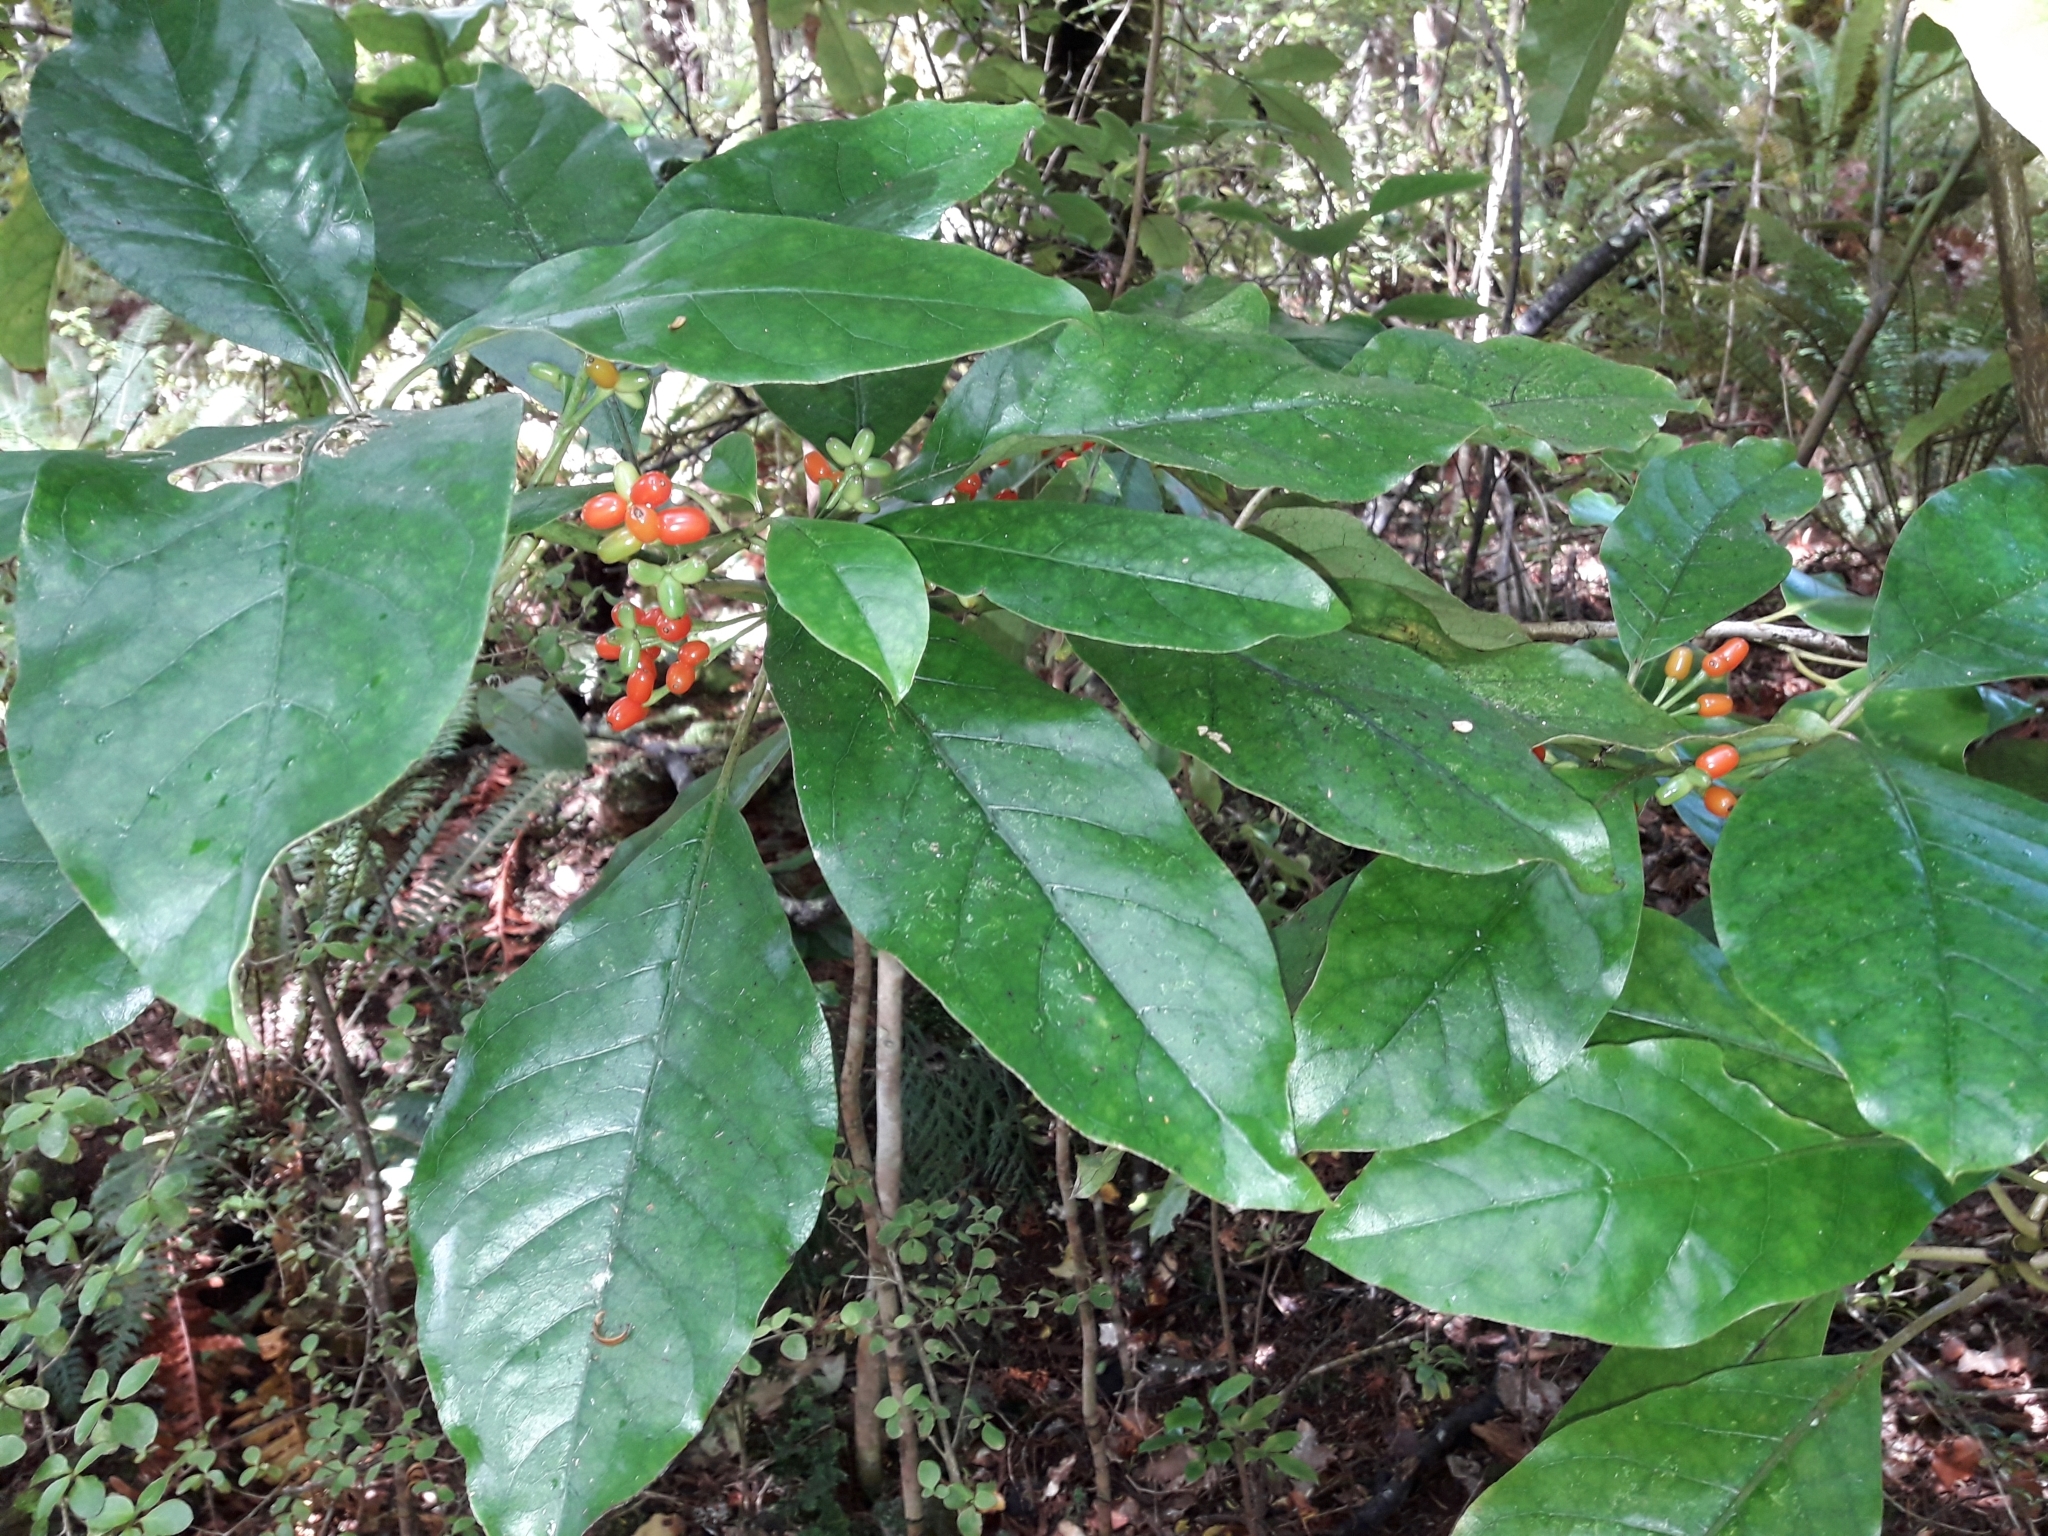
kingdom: Plantae
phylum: Tracheophyta
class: Magnoliopsida
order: Gentianales
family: Rubiaceae
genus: Coprosma
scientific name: Coprosma autumnalis
